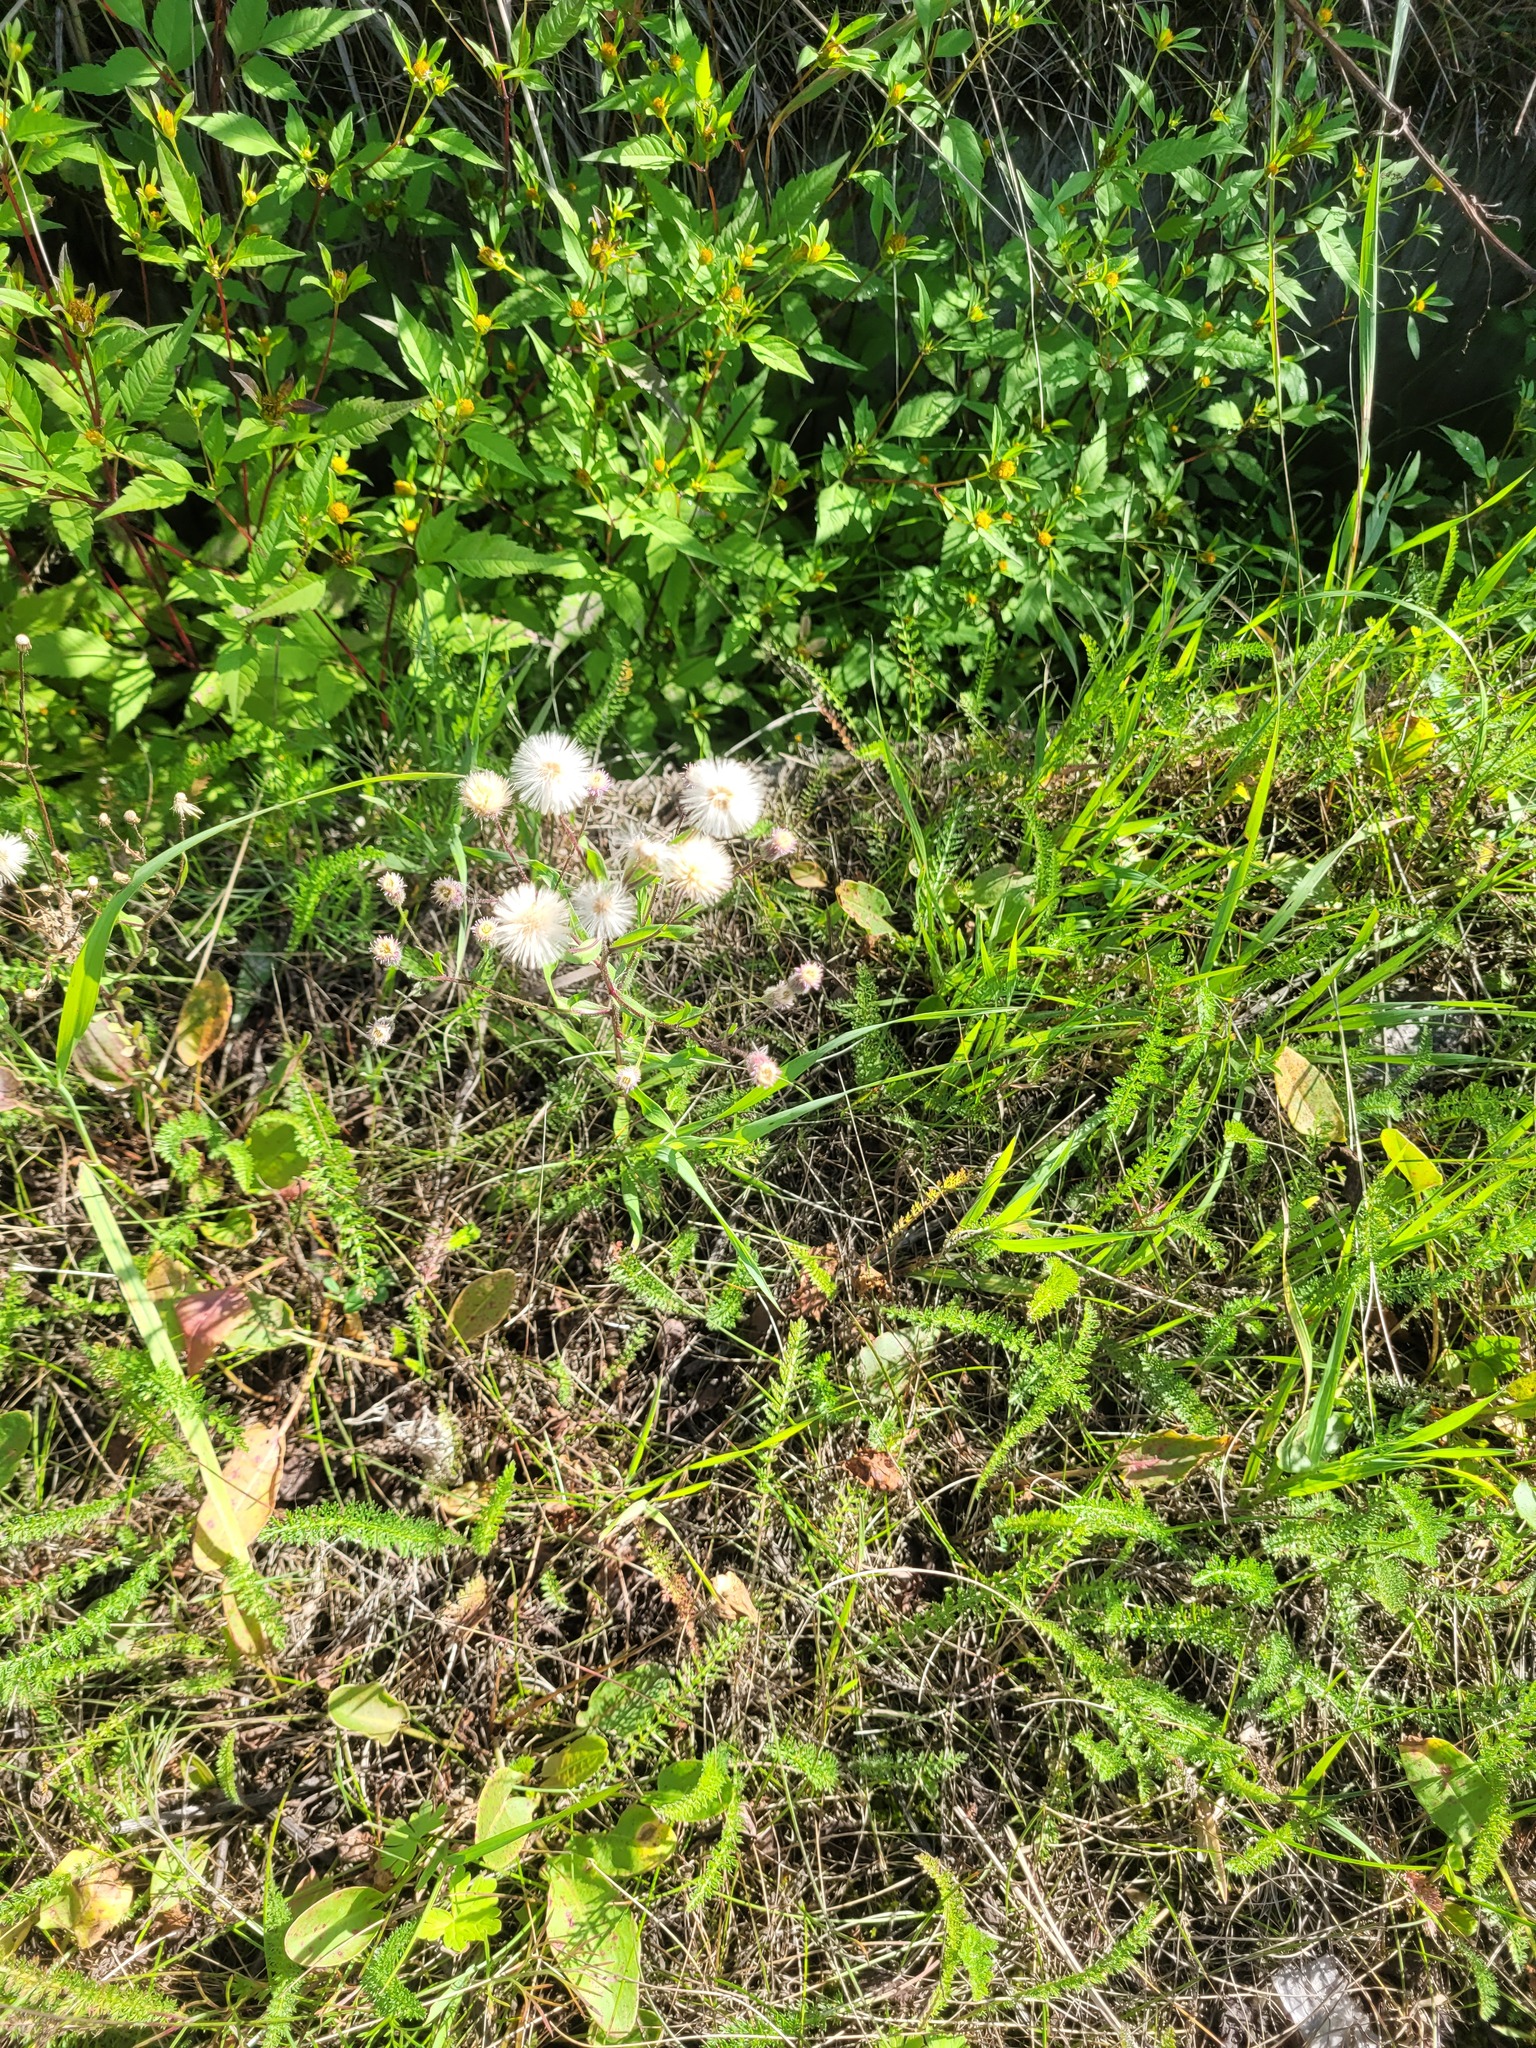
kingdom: Plantae
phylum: Tracheophyta
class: Magnoliopsida
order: Asterales
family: Asteraceae
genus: Erigeron
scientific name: Erigeron acris
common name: Blue fleabane
